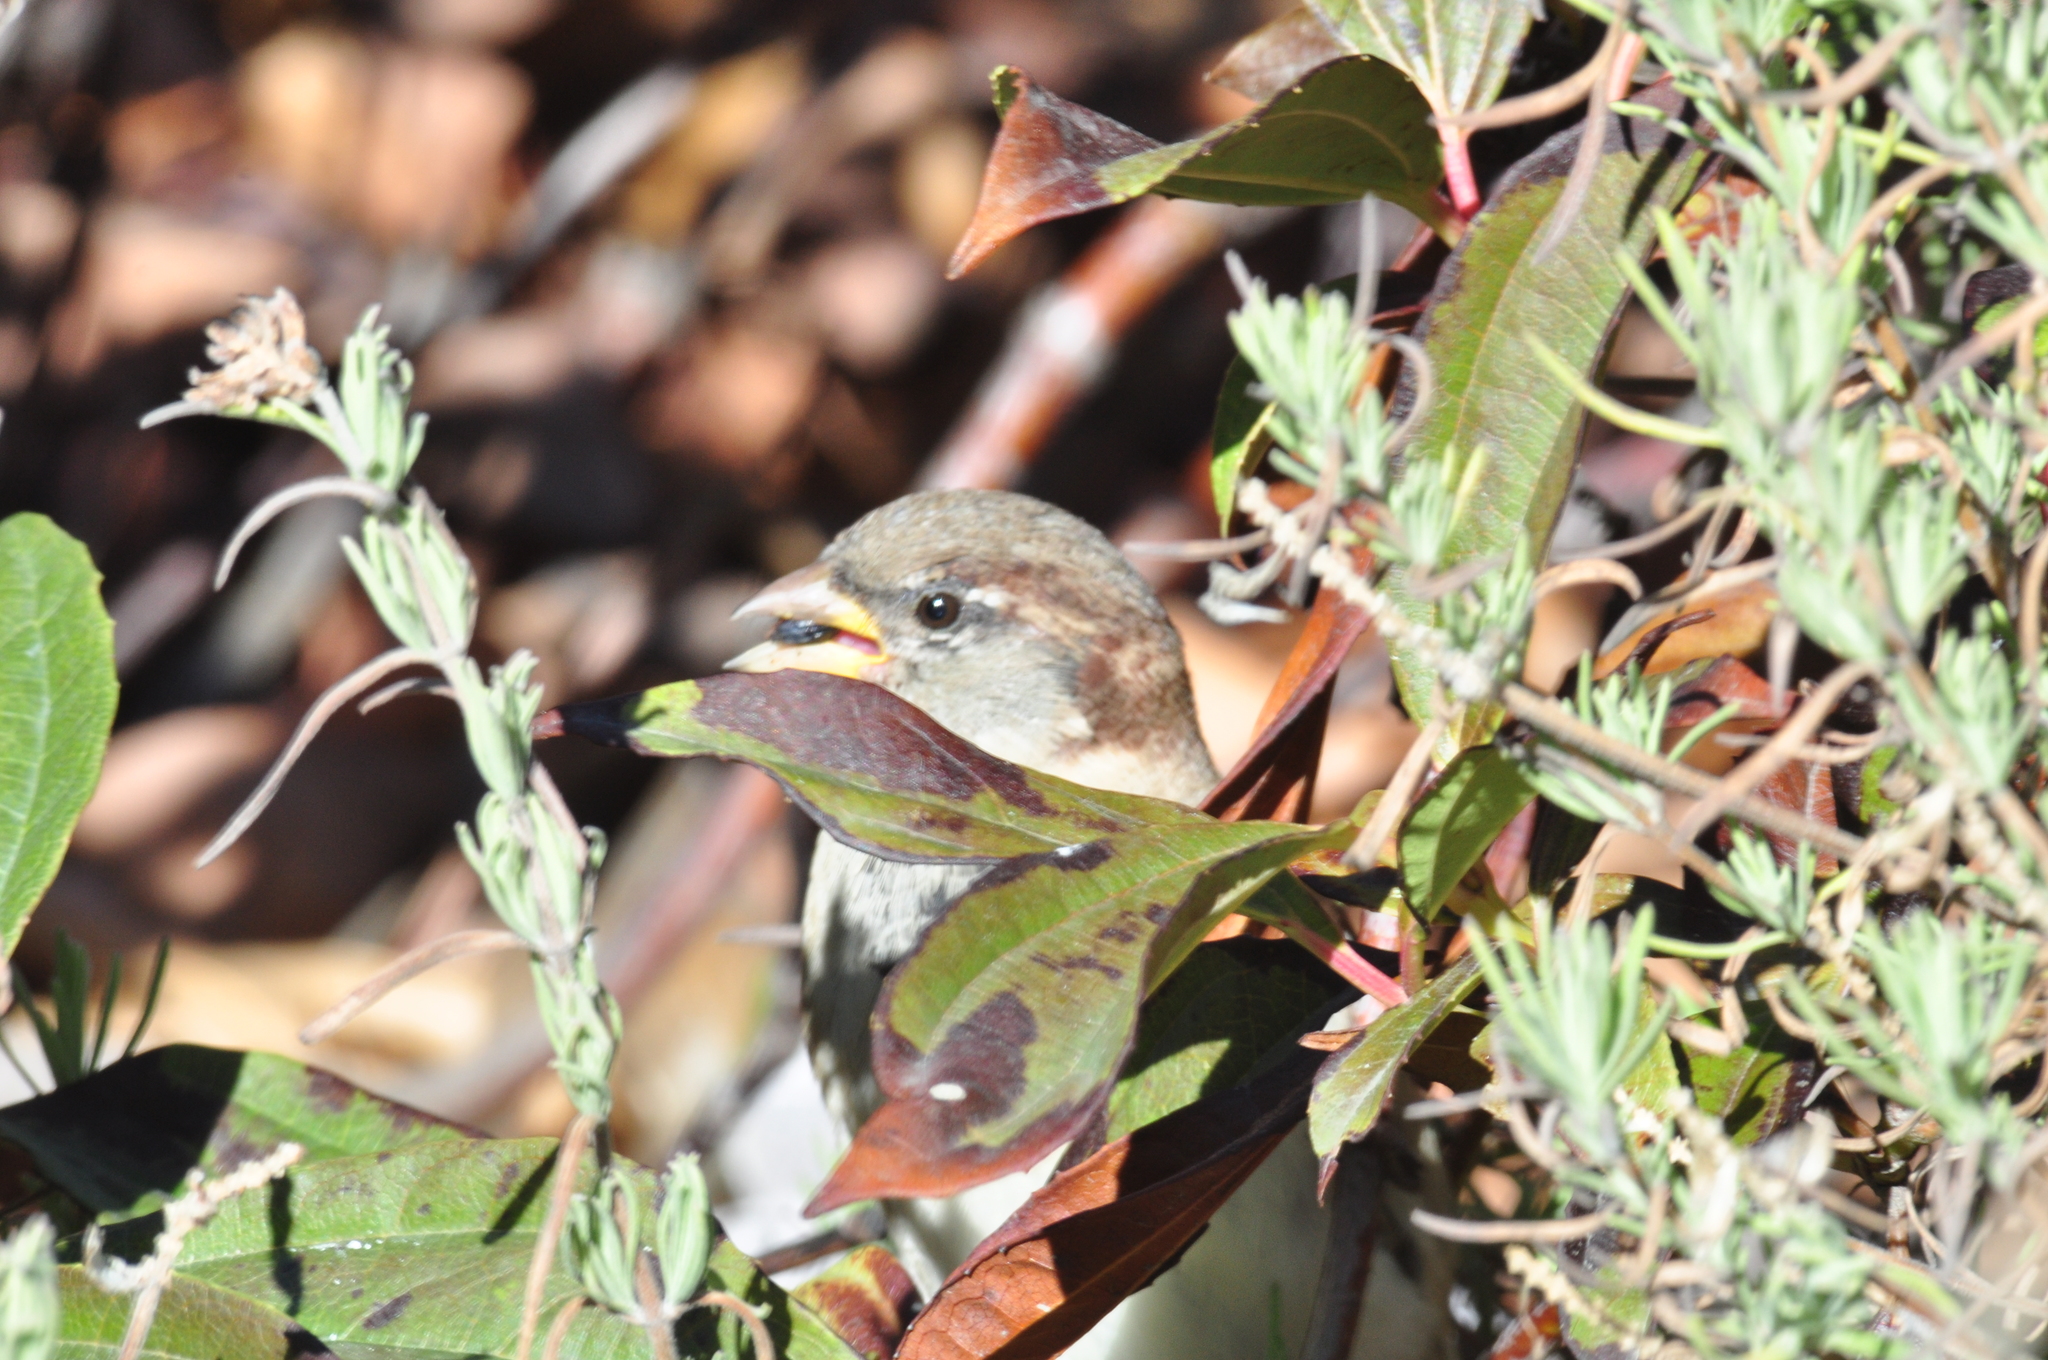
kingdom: Animalia
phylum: Chordata
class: Aves
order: Passeriformes
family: Passeridae
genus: Passer
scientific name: Passer domesticus
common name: House sparrow
